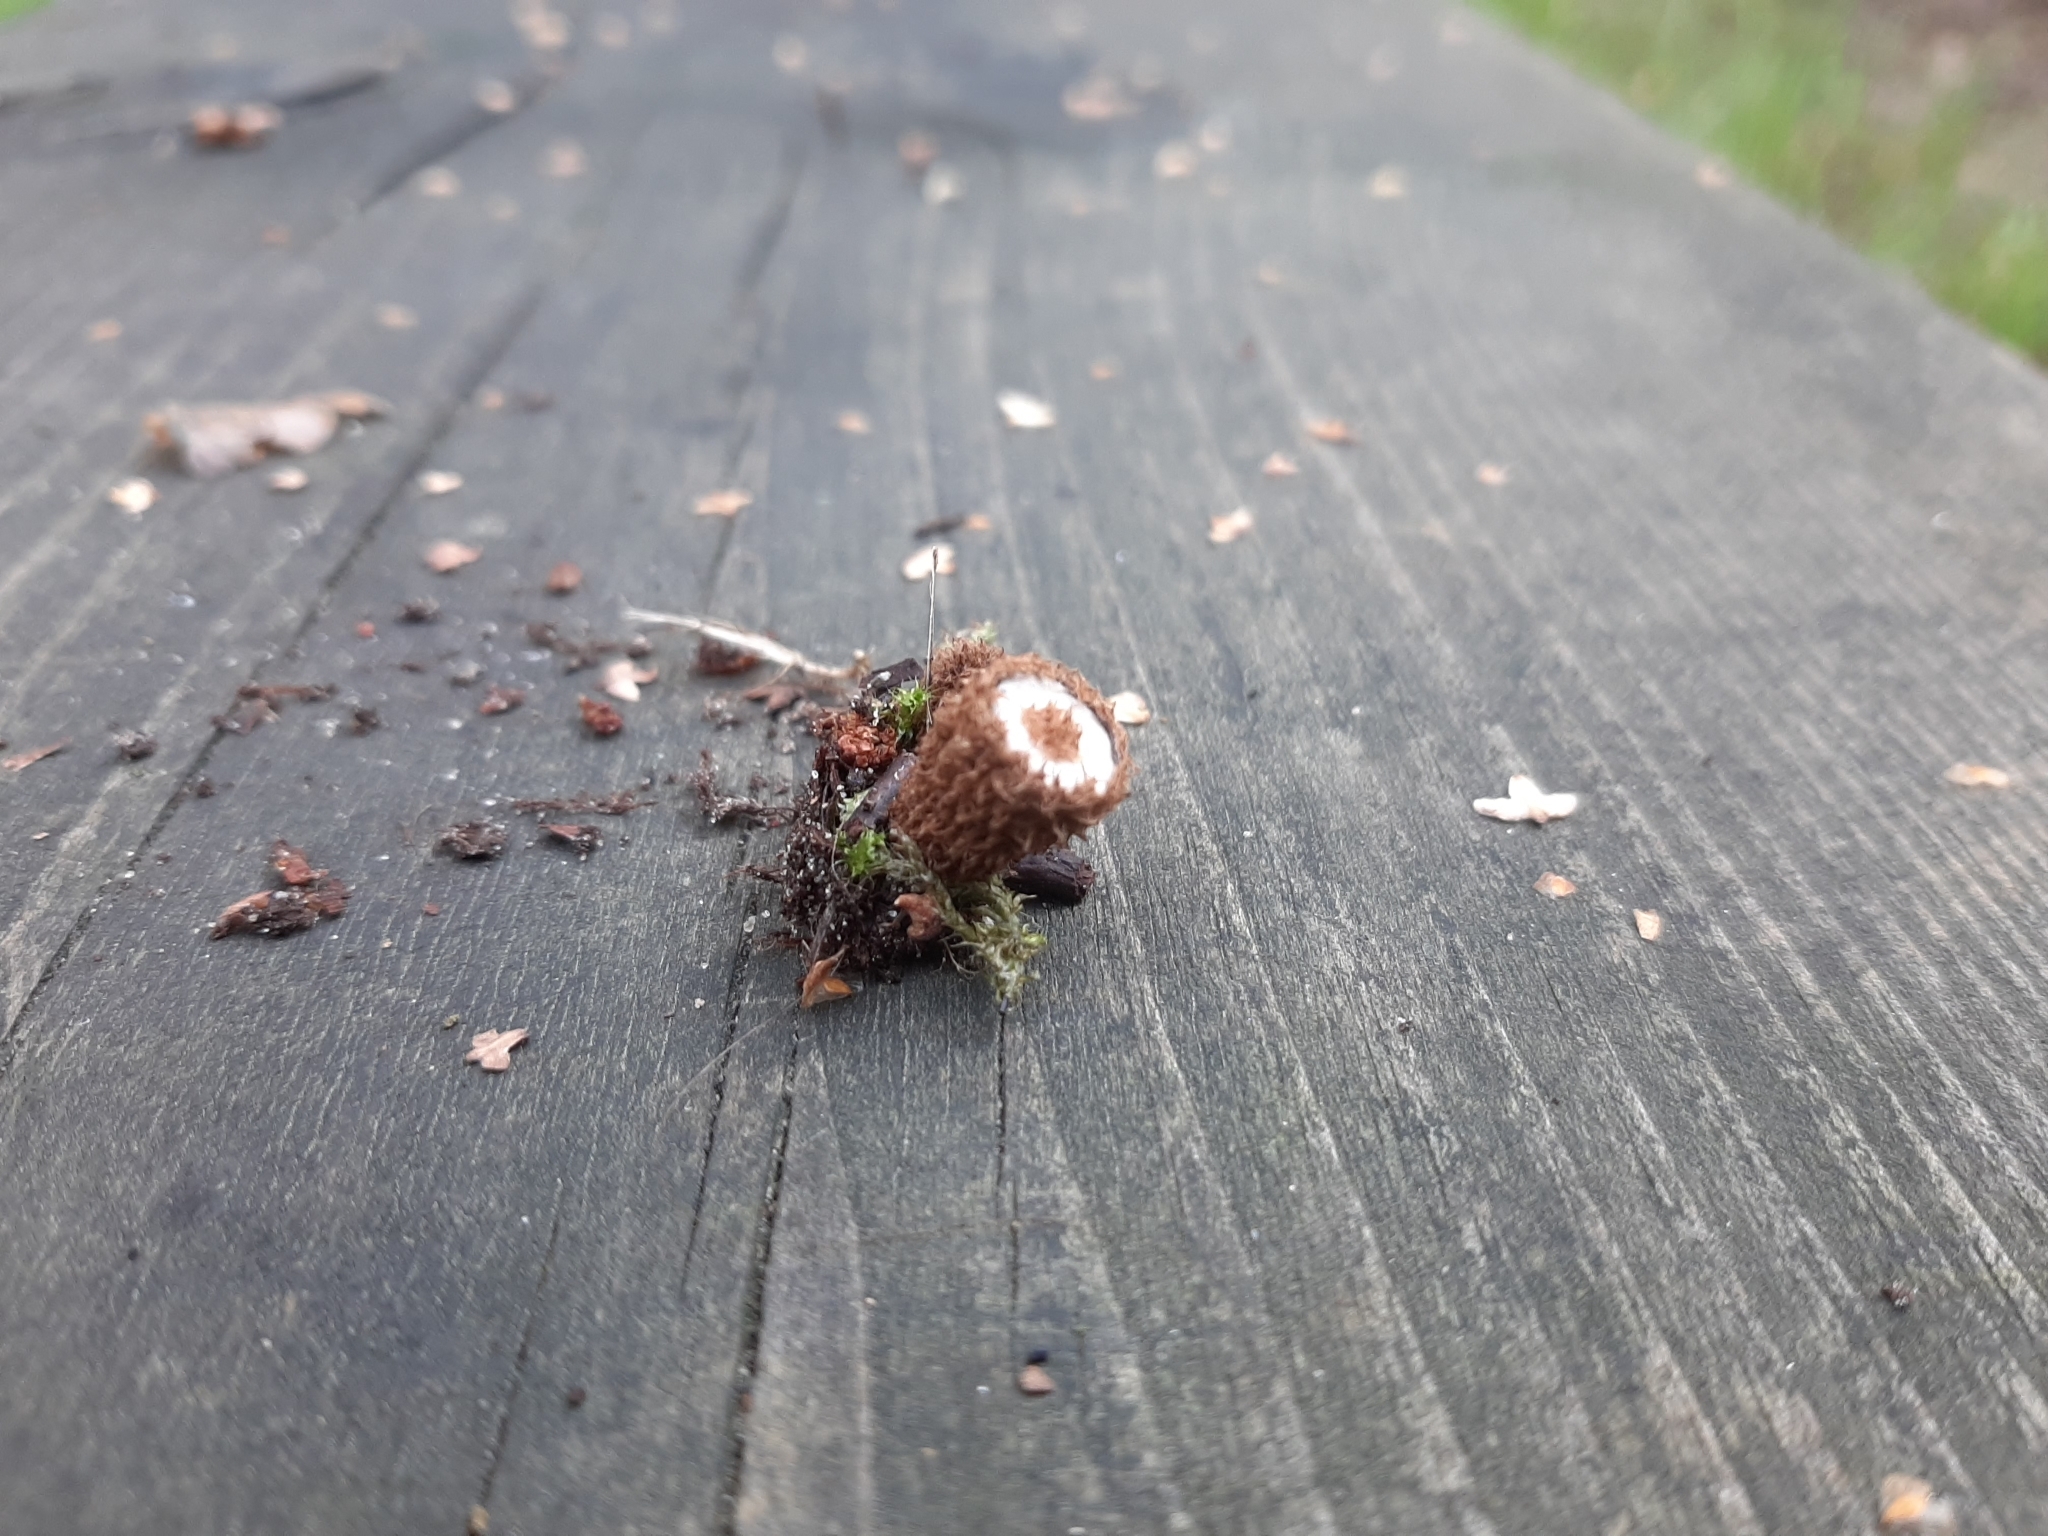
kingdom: Fungi
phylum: Basidiomycota
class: Agaricomycetes
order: Agaricales
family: Agaricaceae
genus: Cyathus
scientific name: Cyathus striatus
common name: Fluted bird's nest
